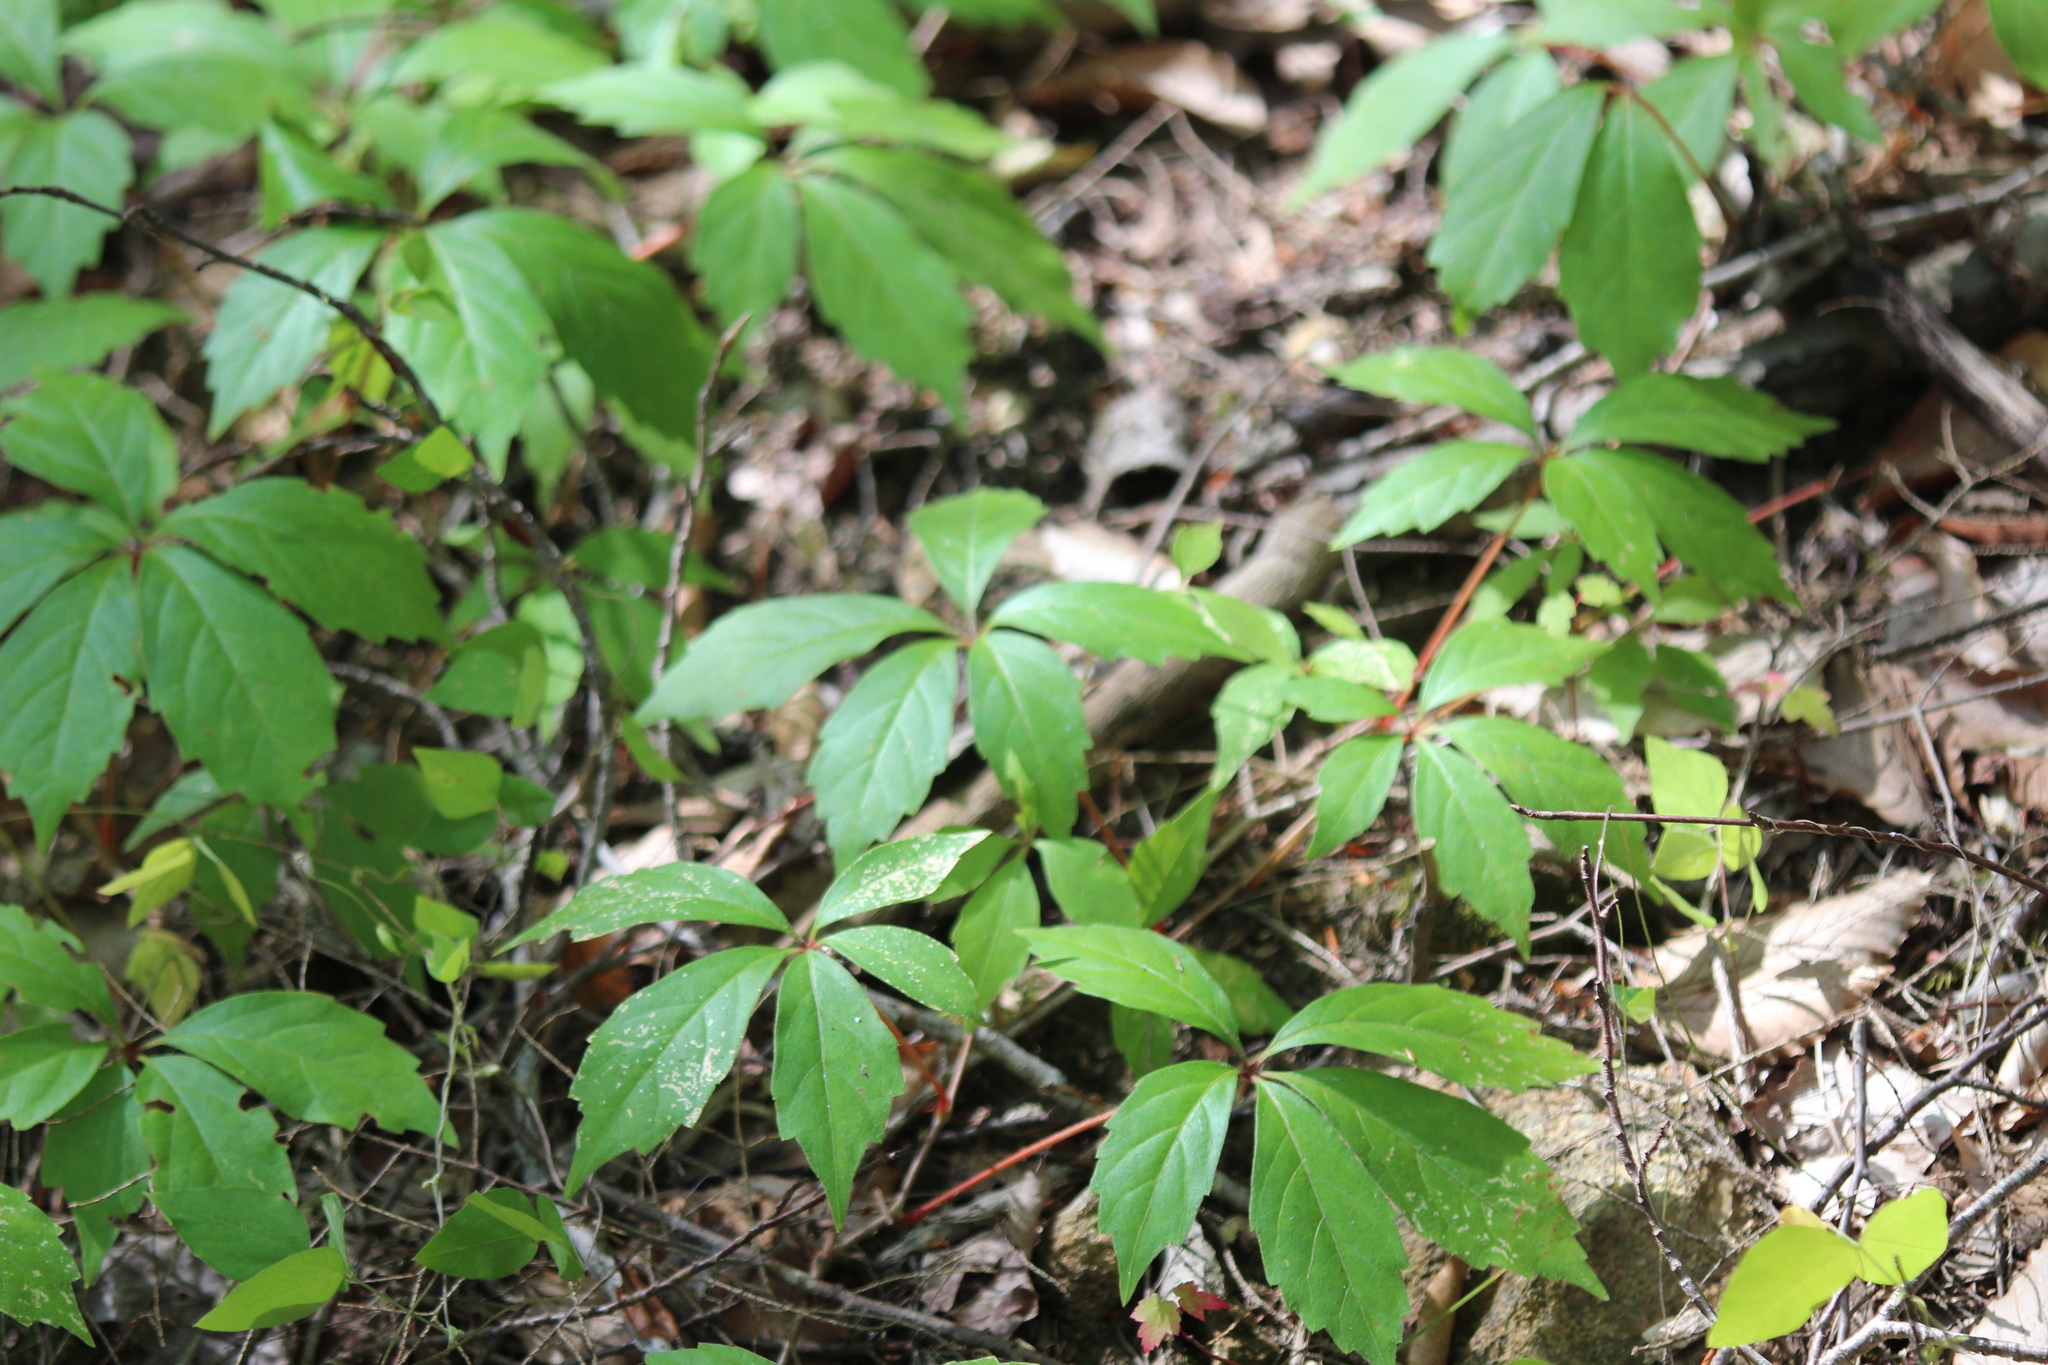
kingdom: Plantae
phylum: Tracheophyta
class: Magnoliopsida
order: Vitales
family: Vitaceae
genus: Parthenocissus
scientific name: Parthenocissus quinquefolia
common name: Virginia-creeper
